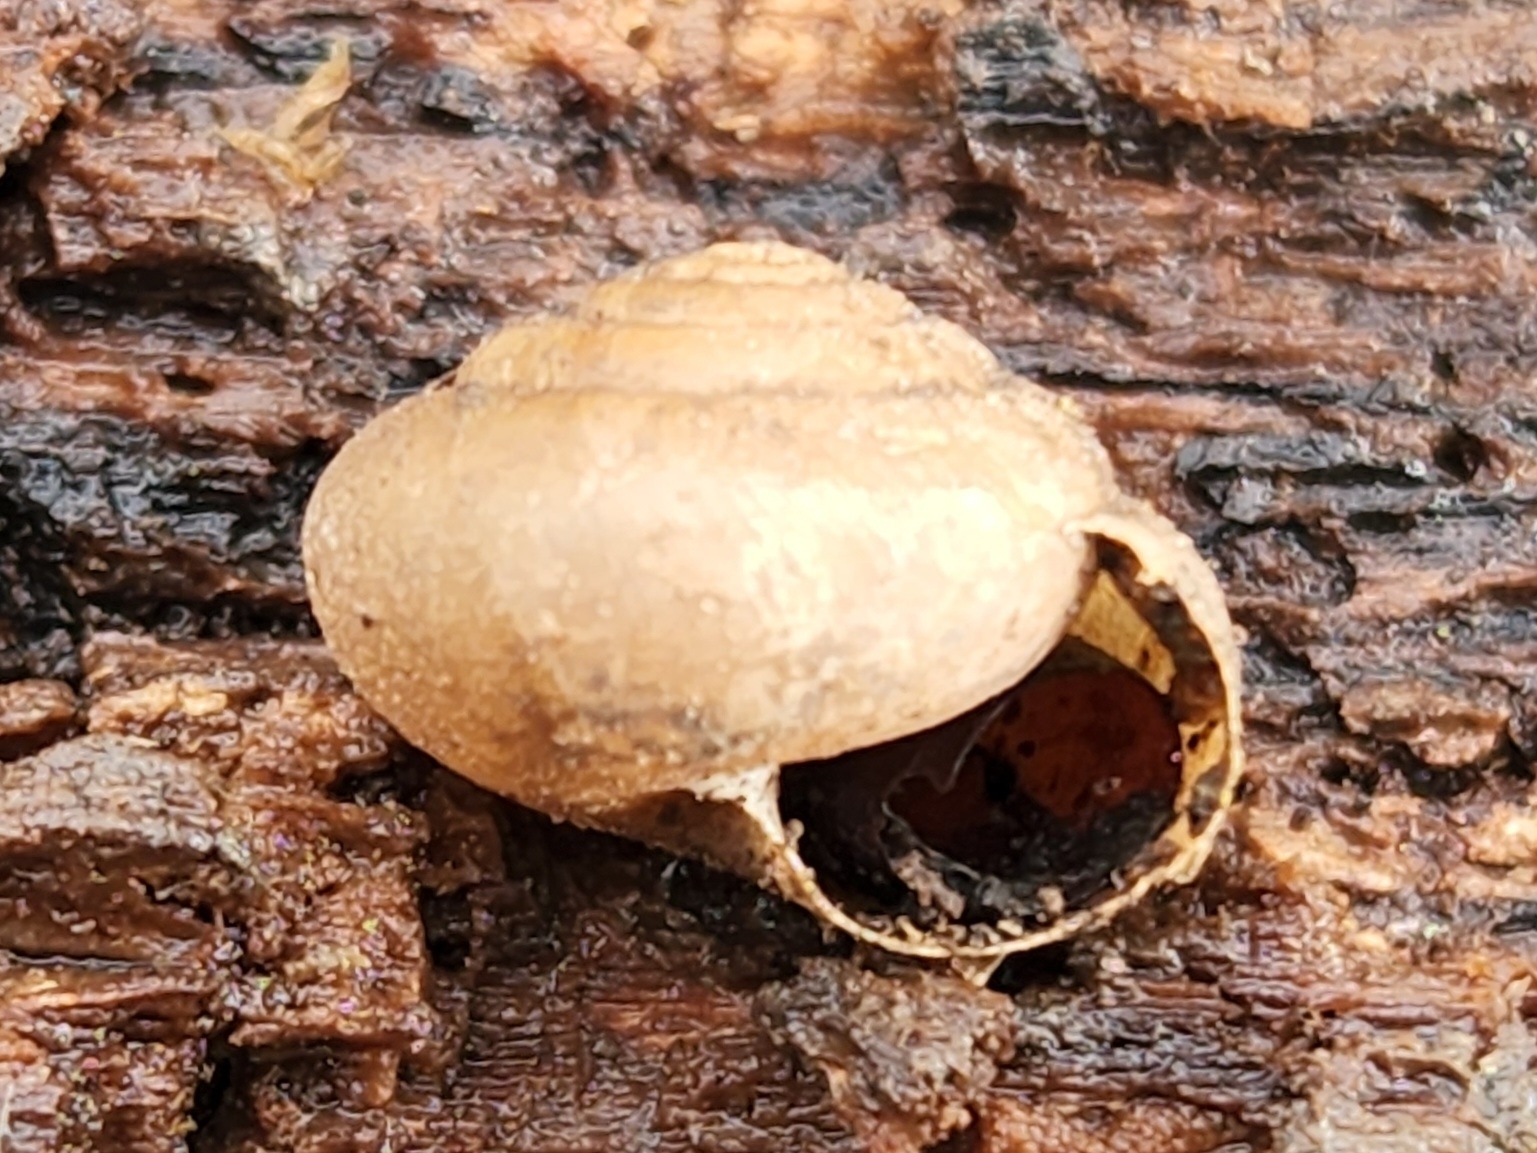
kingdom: Animalia
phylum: Mollusca
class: Gastropoda
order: Stylommatophora
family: Polygyridae
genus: Vespericola
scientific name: Vespericola columbianus
